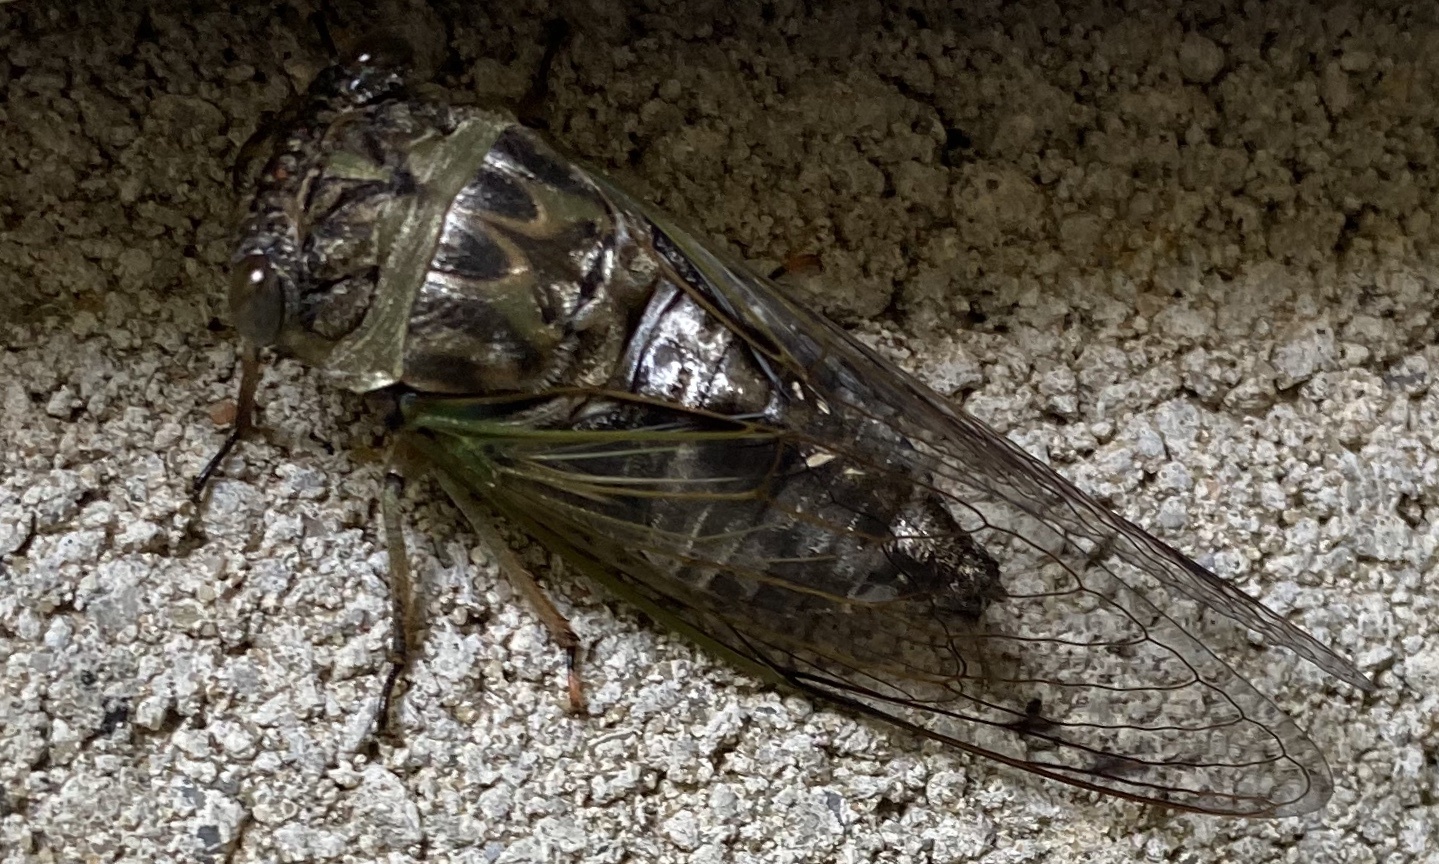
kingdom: Animalia
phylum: Arthropoda
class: Insecta
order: Hemiptera
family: Cicadidae
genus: Neotibicen
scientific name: Neotibicen canicularis
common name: God-day cicada
